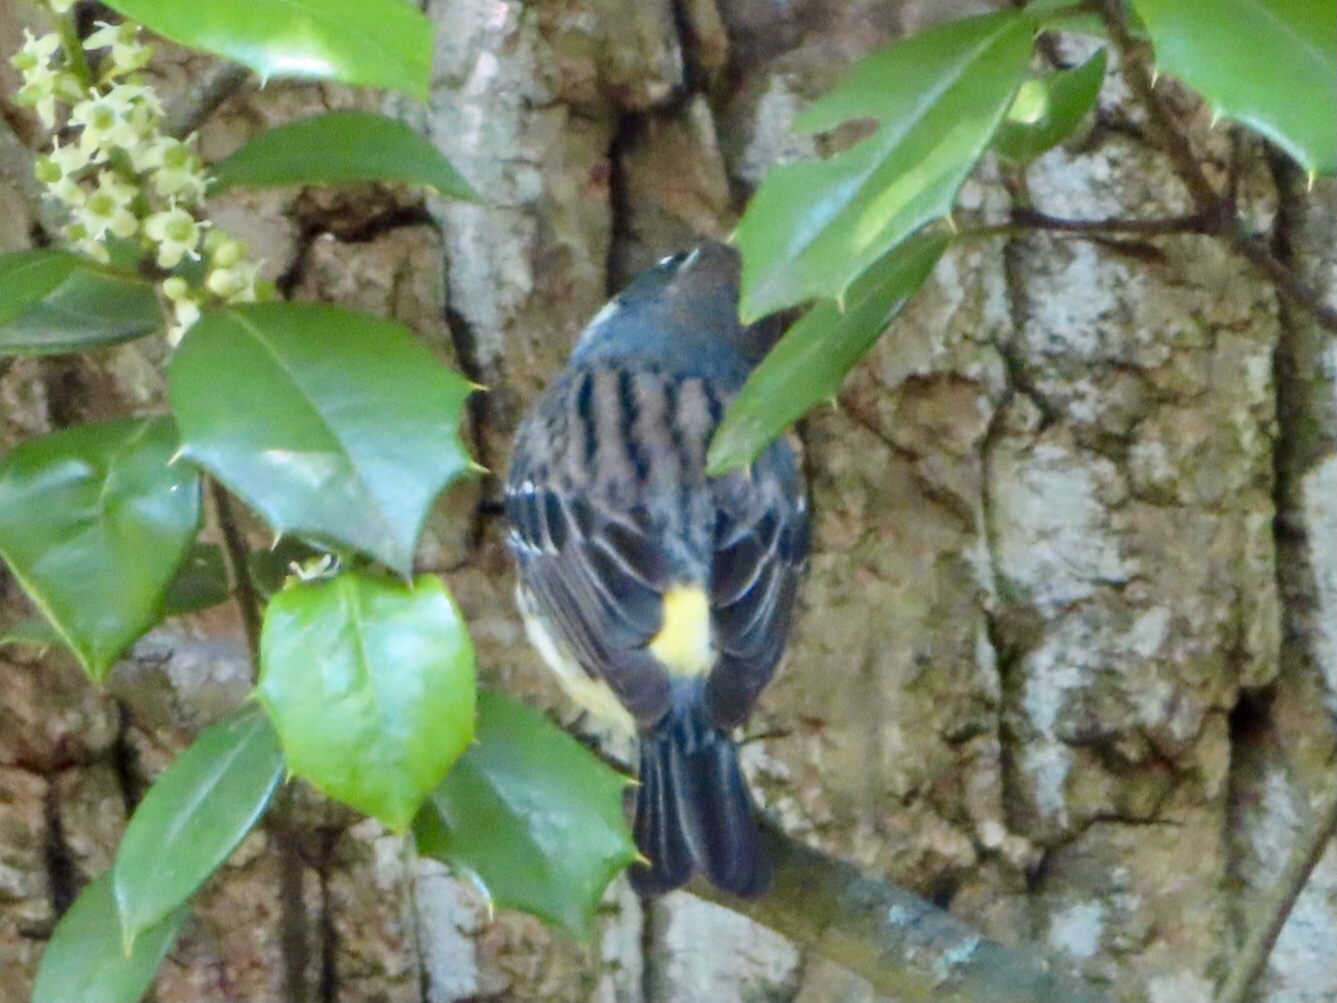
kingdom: Animalia
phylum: Chordata
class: Aves
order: Passeriformes
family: Parulidae
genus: Setophaga
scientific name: Setophaga coronata
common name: Myrtle warbler
